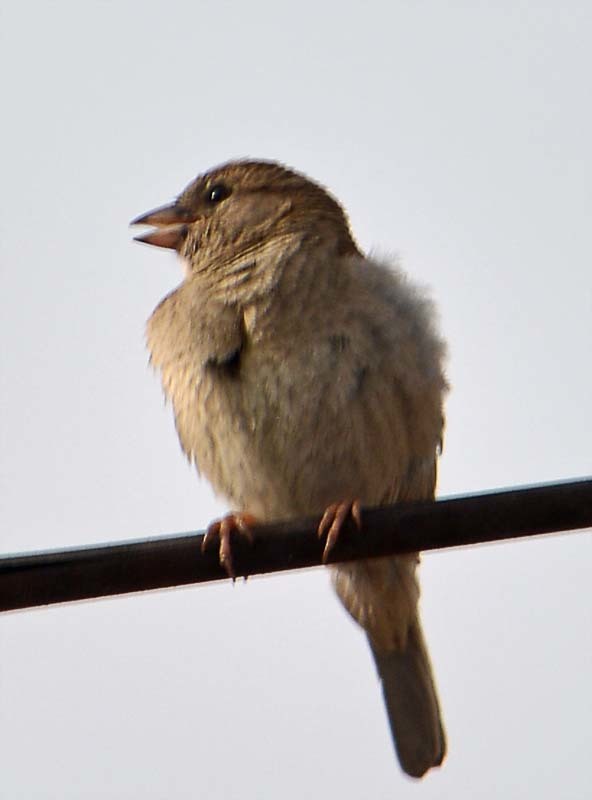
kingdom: Animalia
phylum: Chordata
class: Aves
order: Passeriformes
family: Passeridae
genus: Passer
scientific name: Passer domesticus
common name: House sparrow
